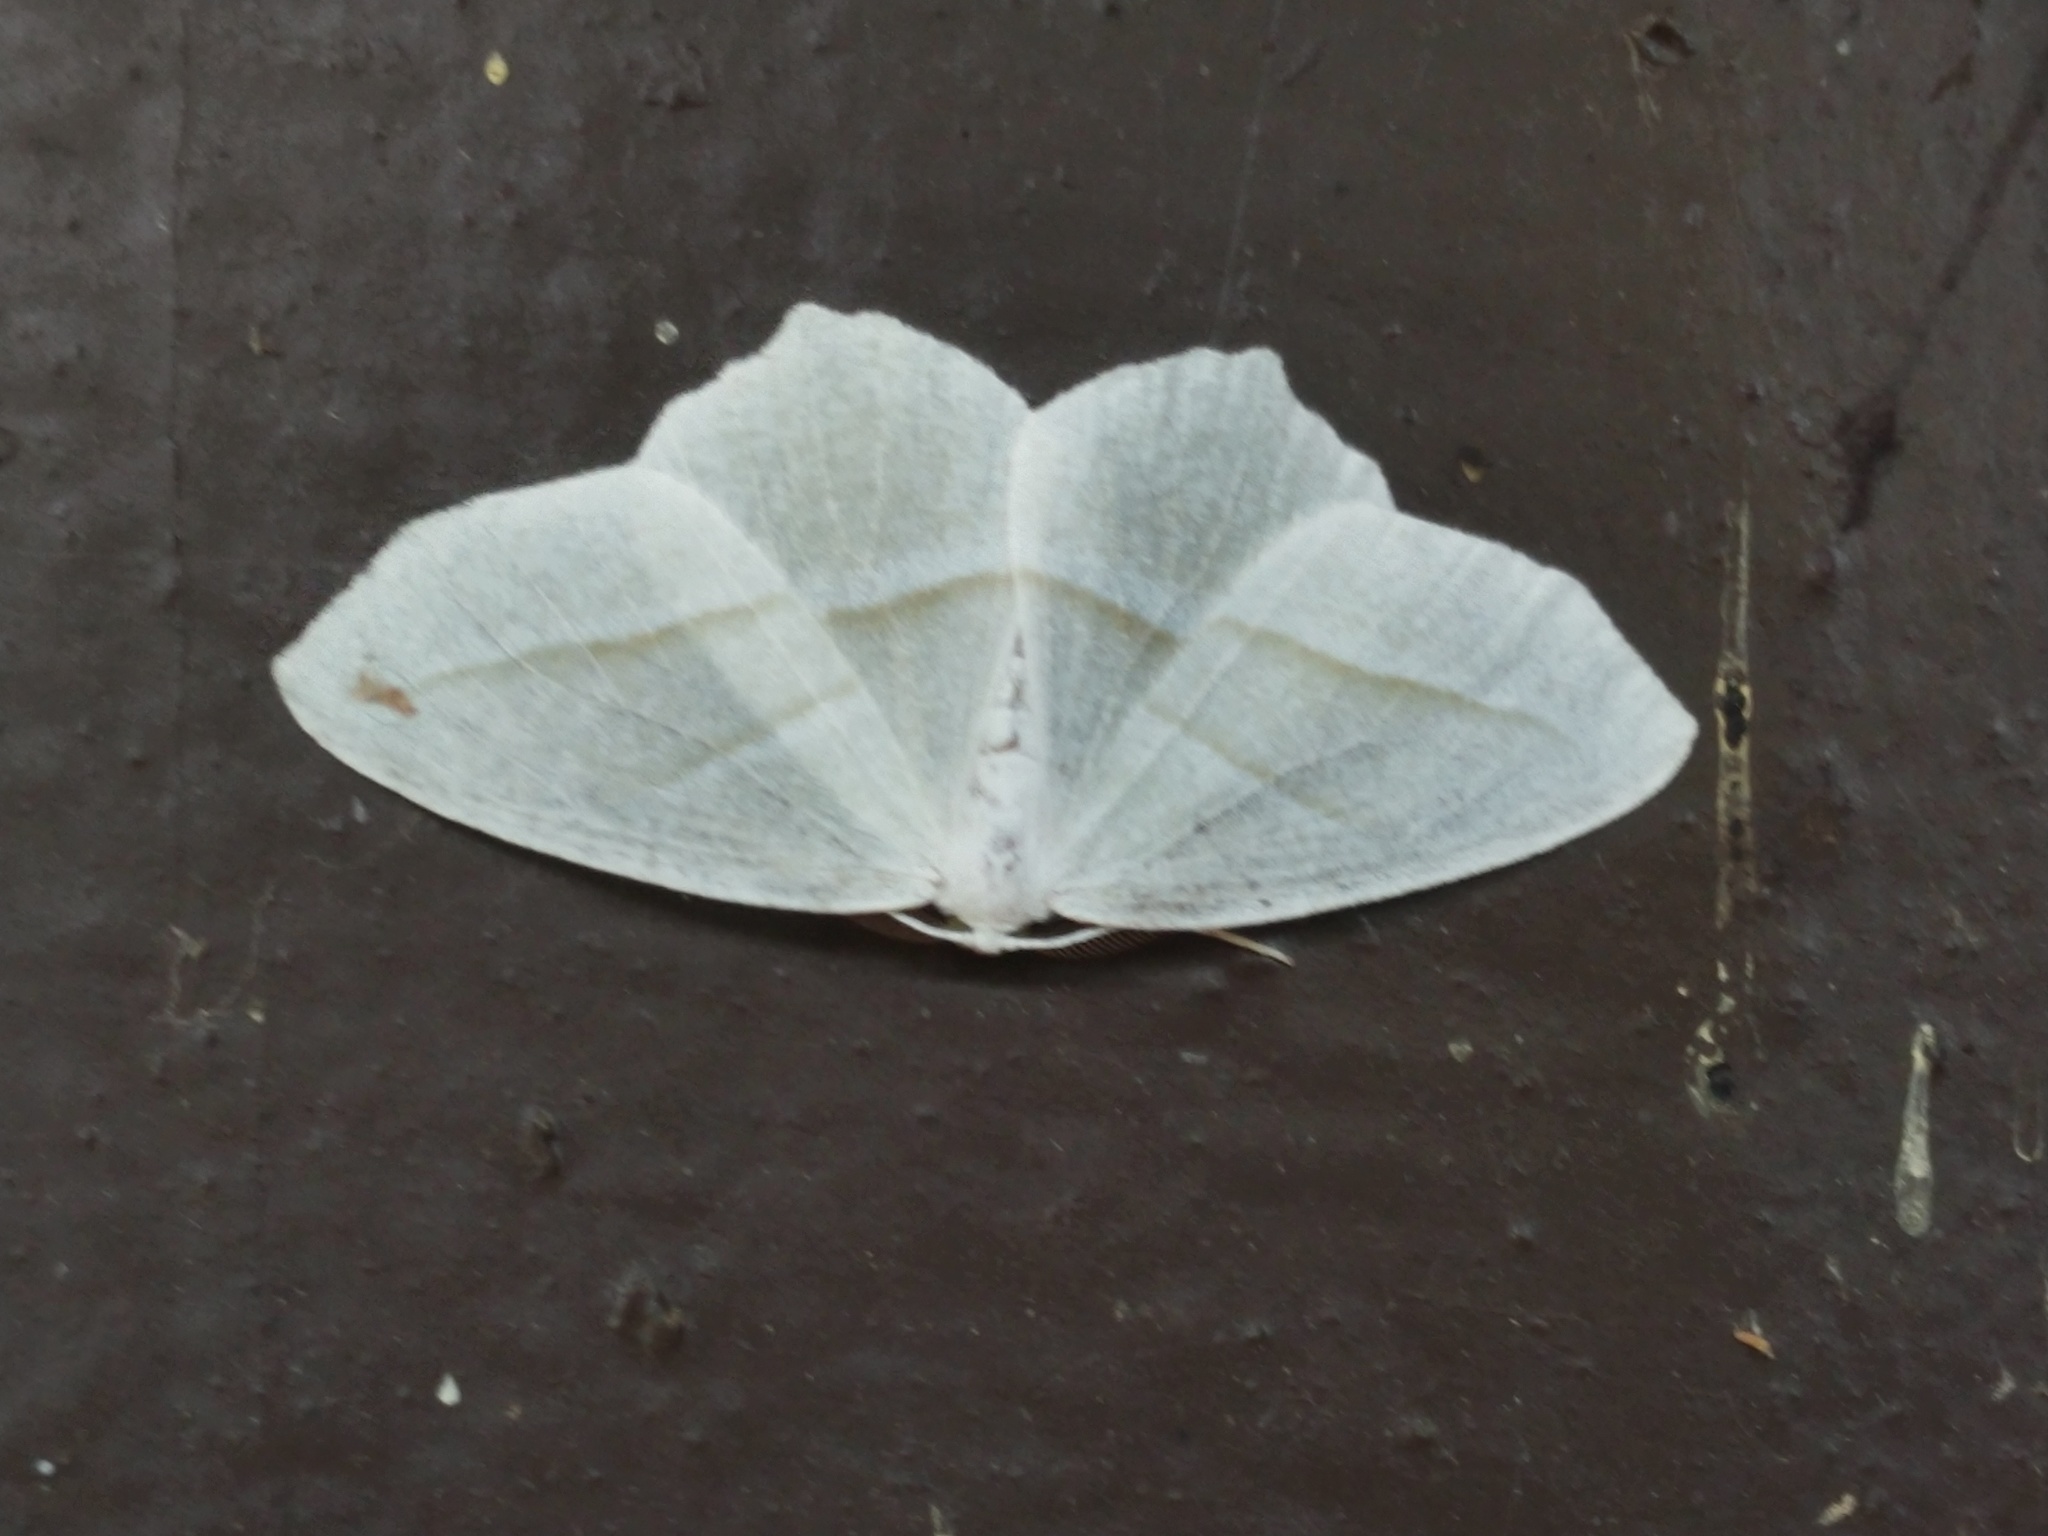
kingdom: Animalia
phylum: Arthropoda
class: Insecta
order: Lepidoptera
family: Geometridae
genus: Campaea
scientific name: Campaea perlata
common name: Fringed looper
